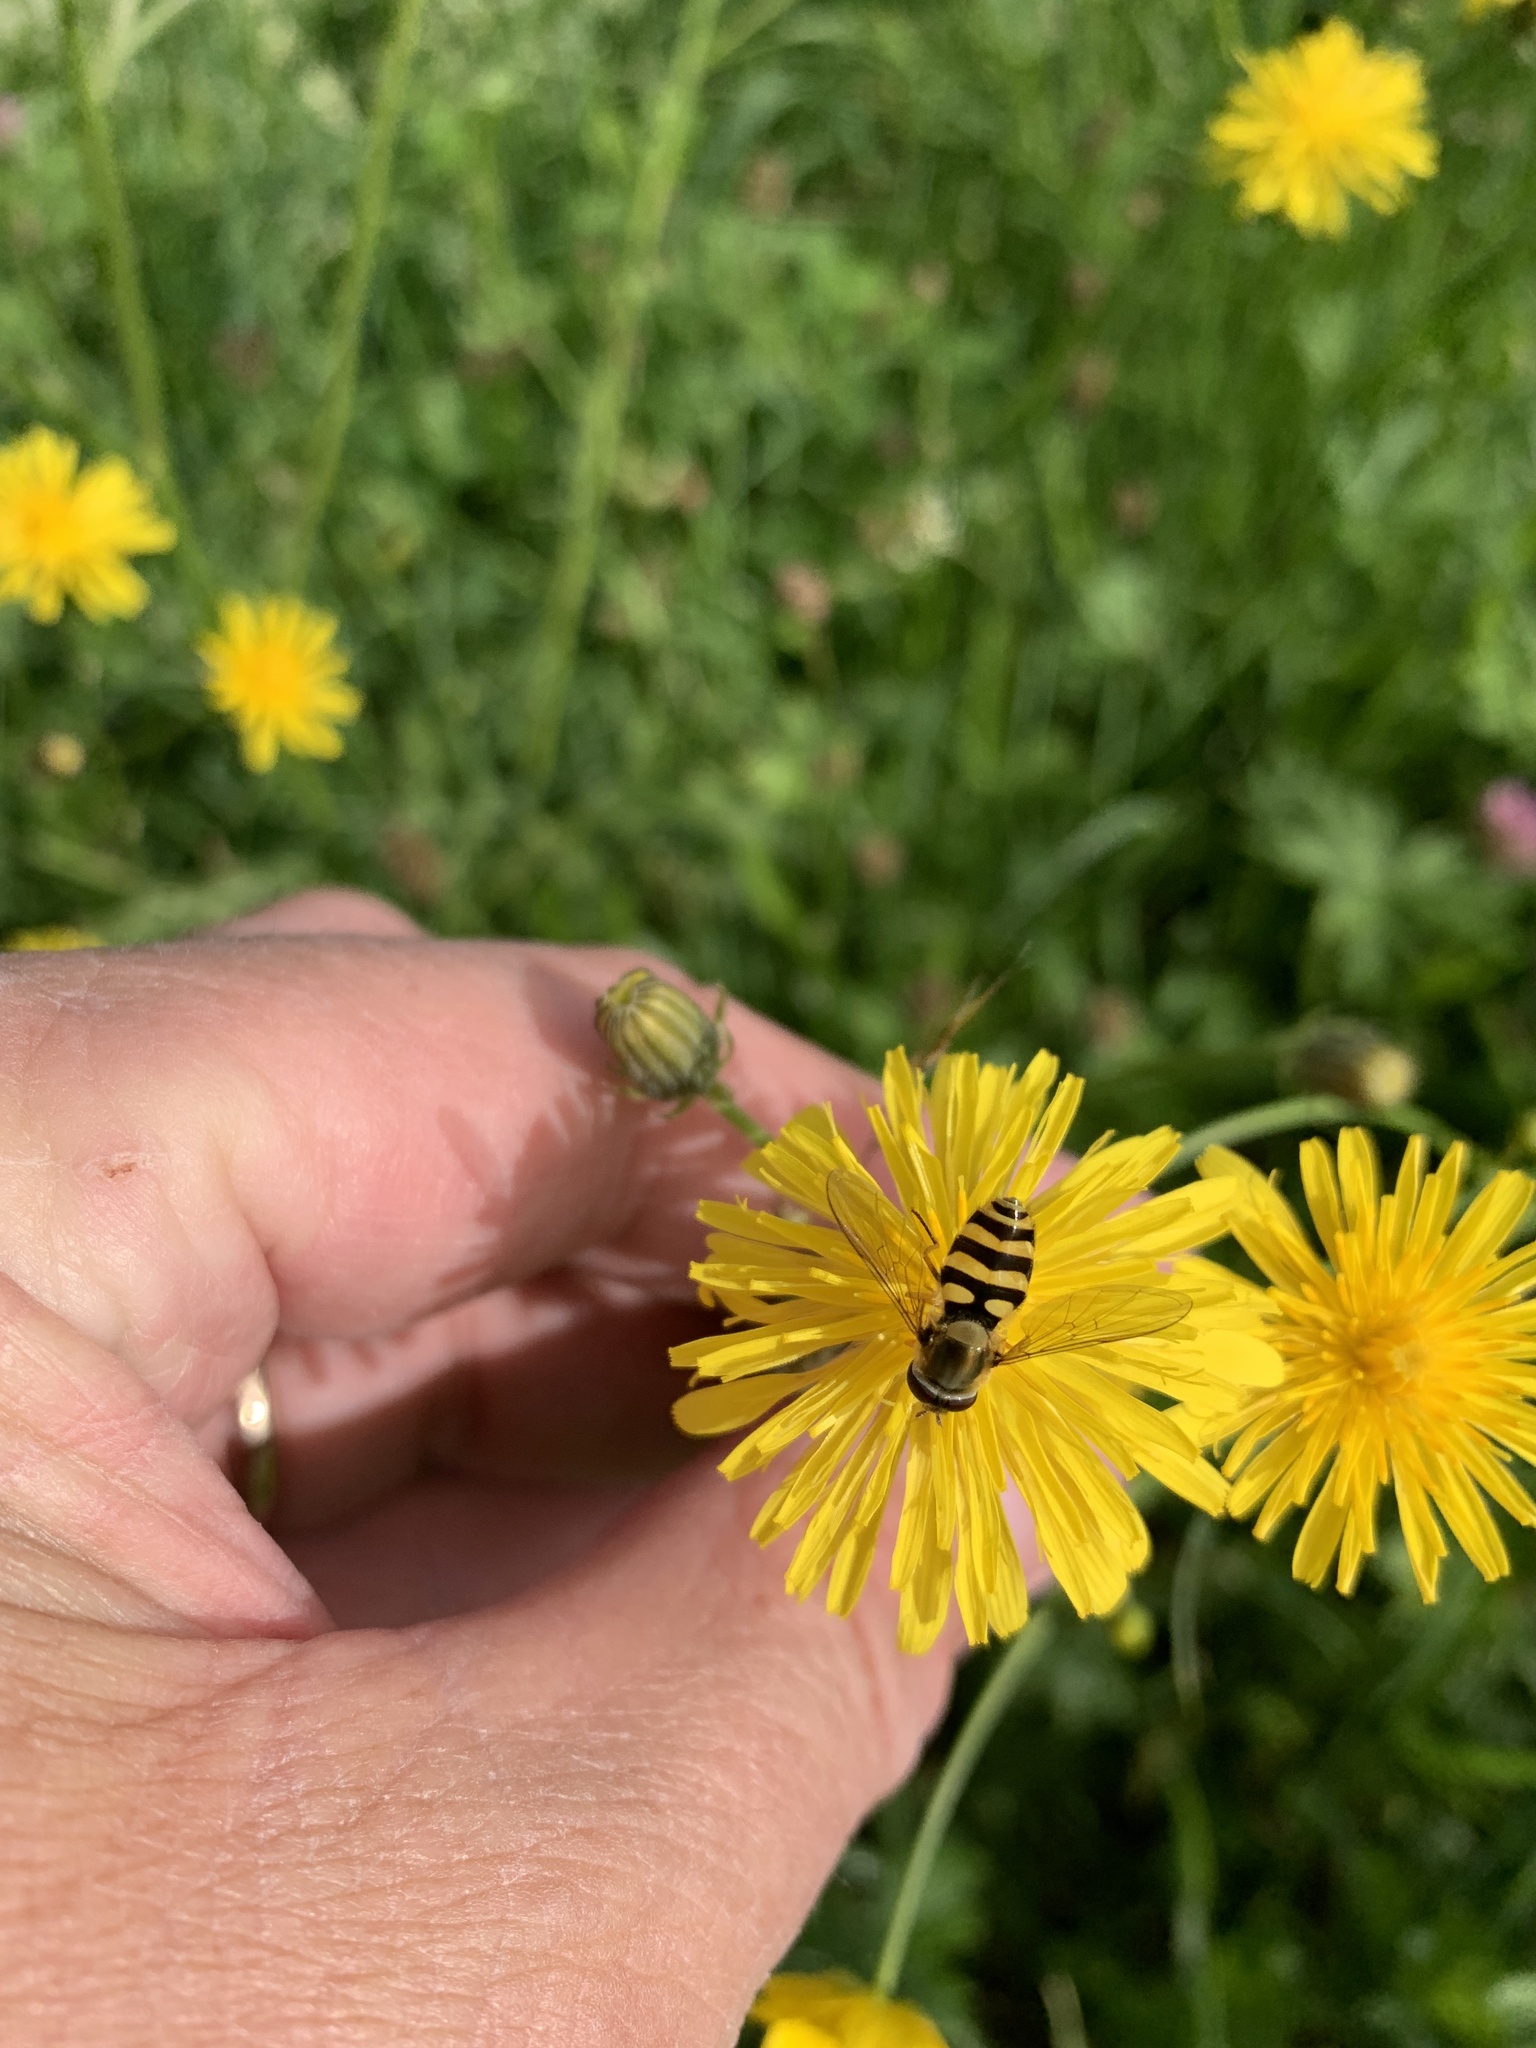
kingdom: Animalia
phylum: Arthropoda
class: Insecta
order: Diptera
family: Syrphidae
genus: Syrphus
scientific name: Syrphus
